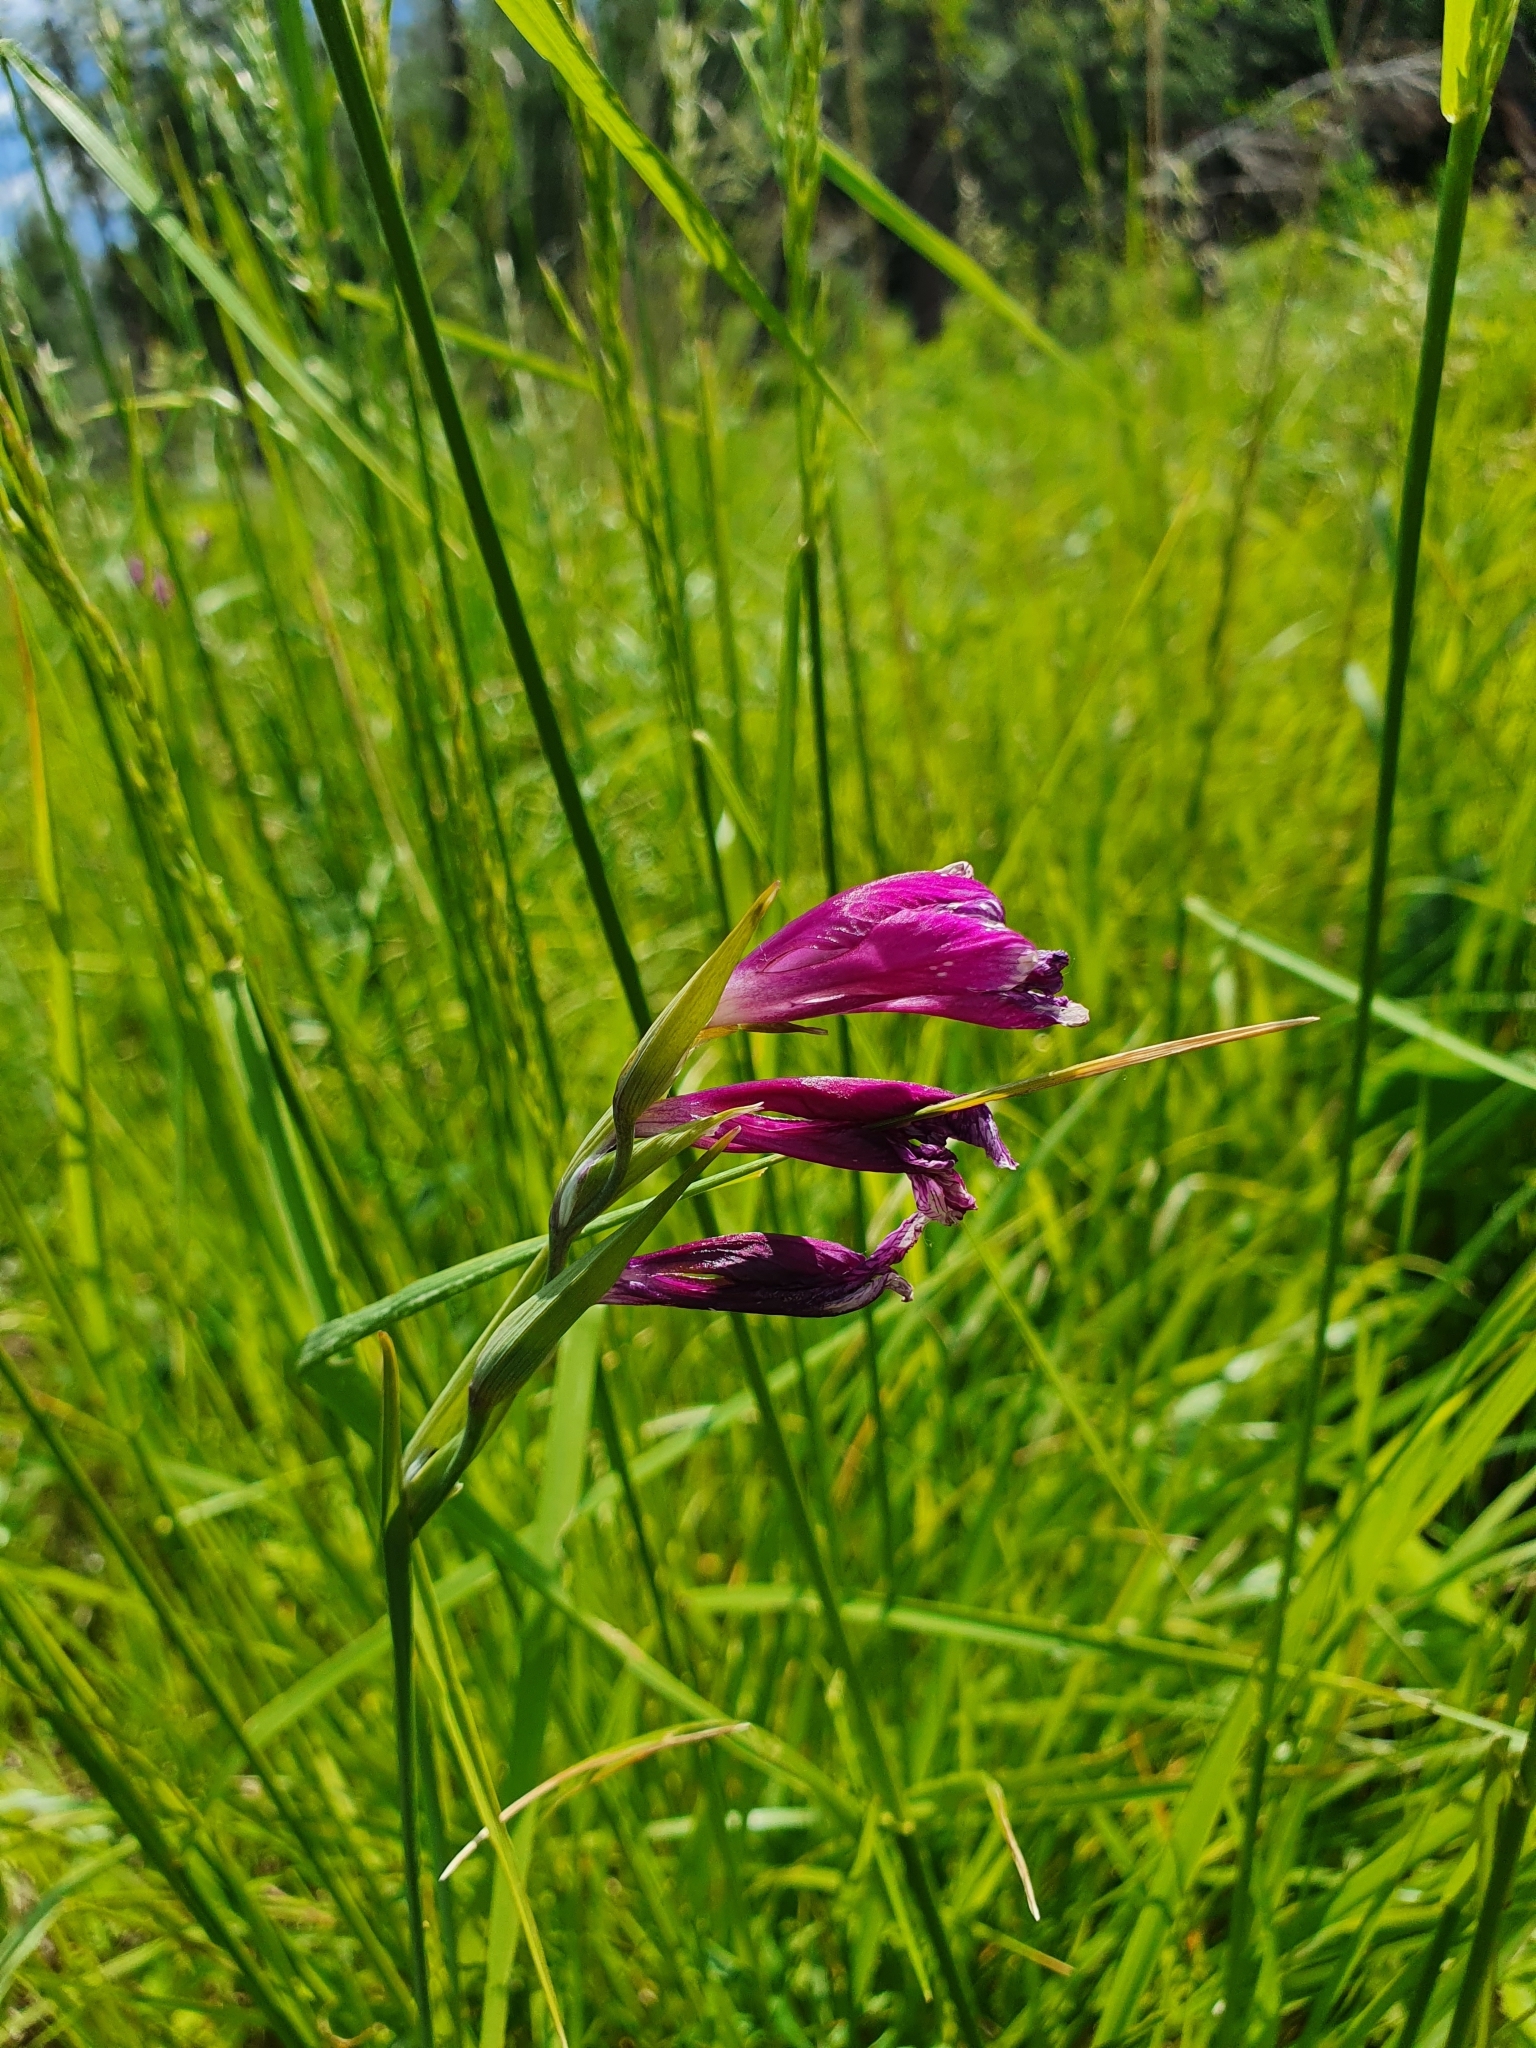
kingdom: Plantae
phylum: Tracheophyta
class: Liliopsida
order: Asparagales
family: Iridaceae
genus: Gladiolus
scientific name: Gladiolus tenuis
